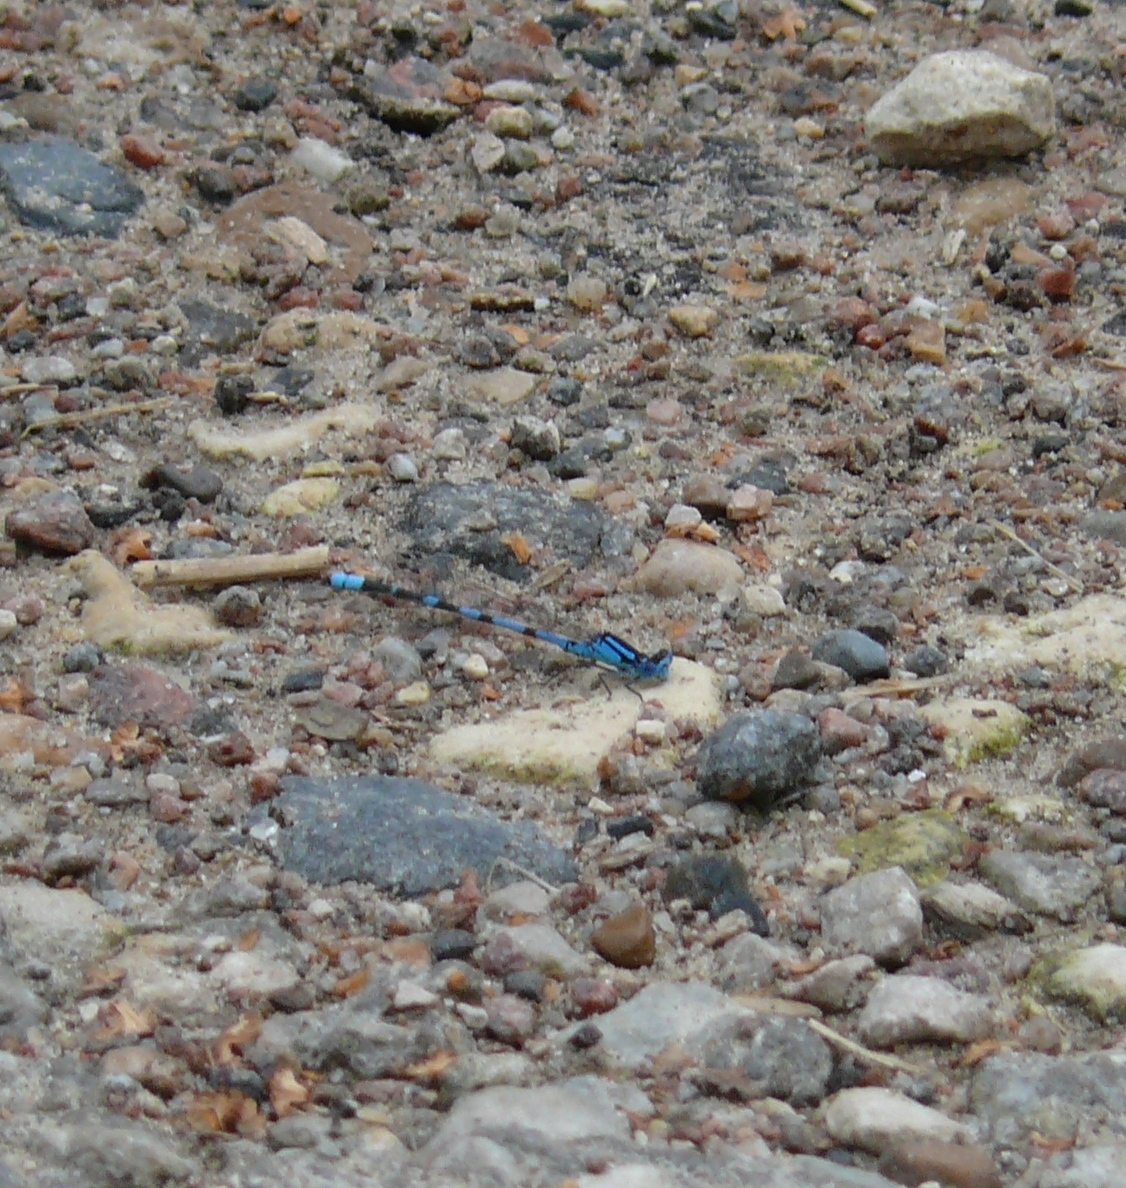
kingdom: Animalia
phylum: Arthropoda
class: Insecta
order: Odonata
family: Coenagrionidae
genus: Enallagma
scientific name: Enallagma cyathigerum
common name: Common blue damselfly
